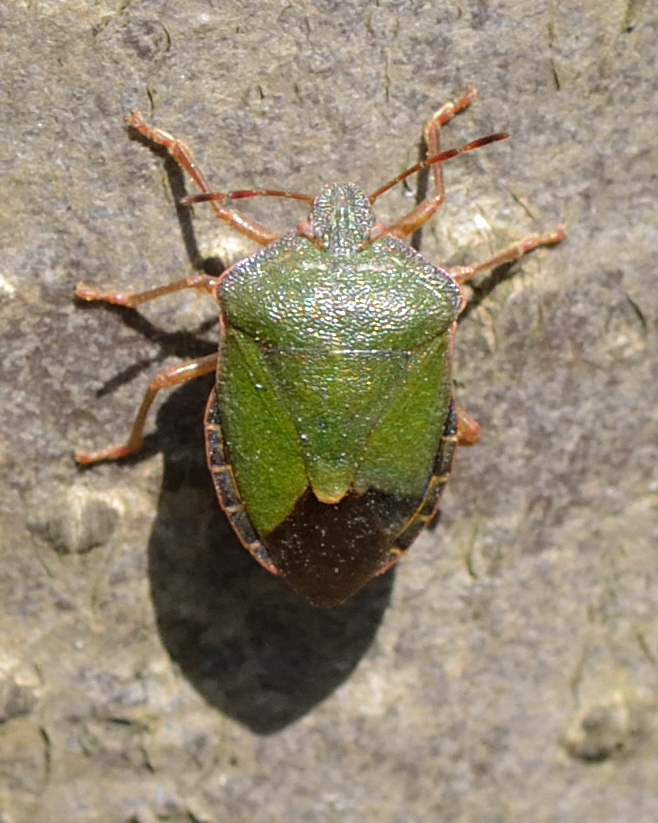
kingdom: Animalia
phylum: Arthropoda
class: Insecta
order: Hemiptera
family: Pentatomidae
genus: Palomena
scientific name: Palomena prasina
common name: Green shieldbug
